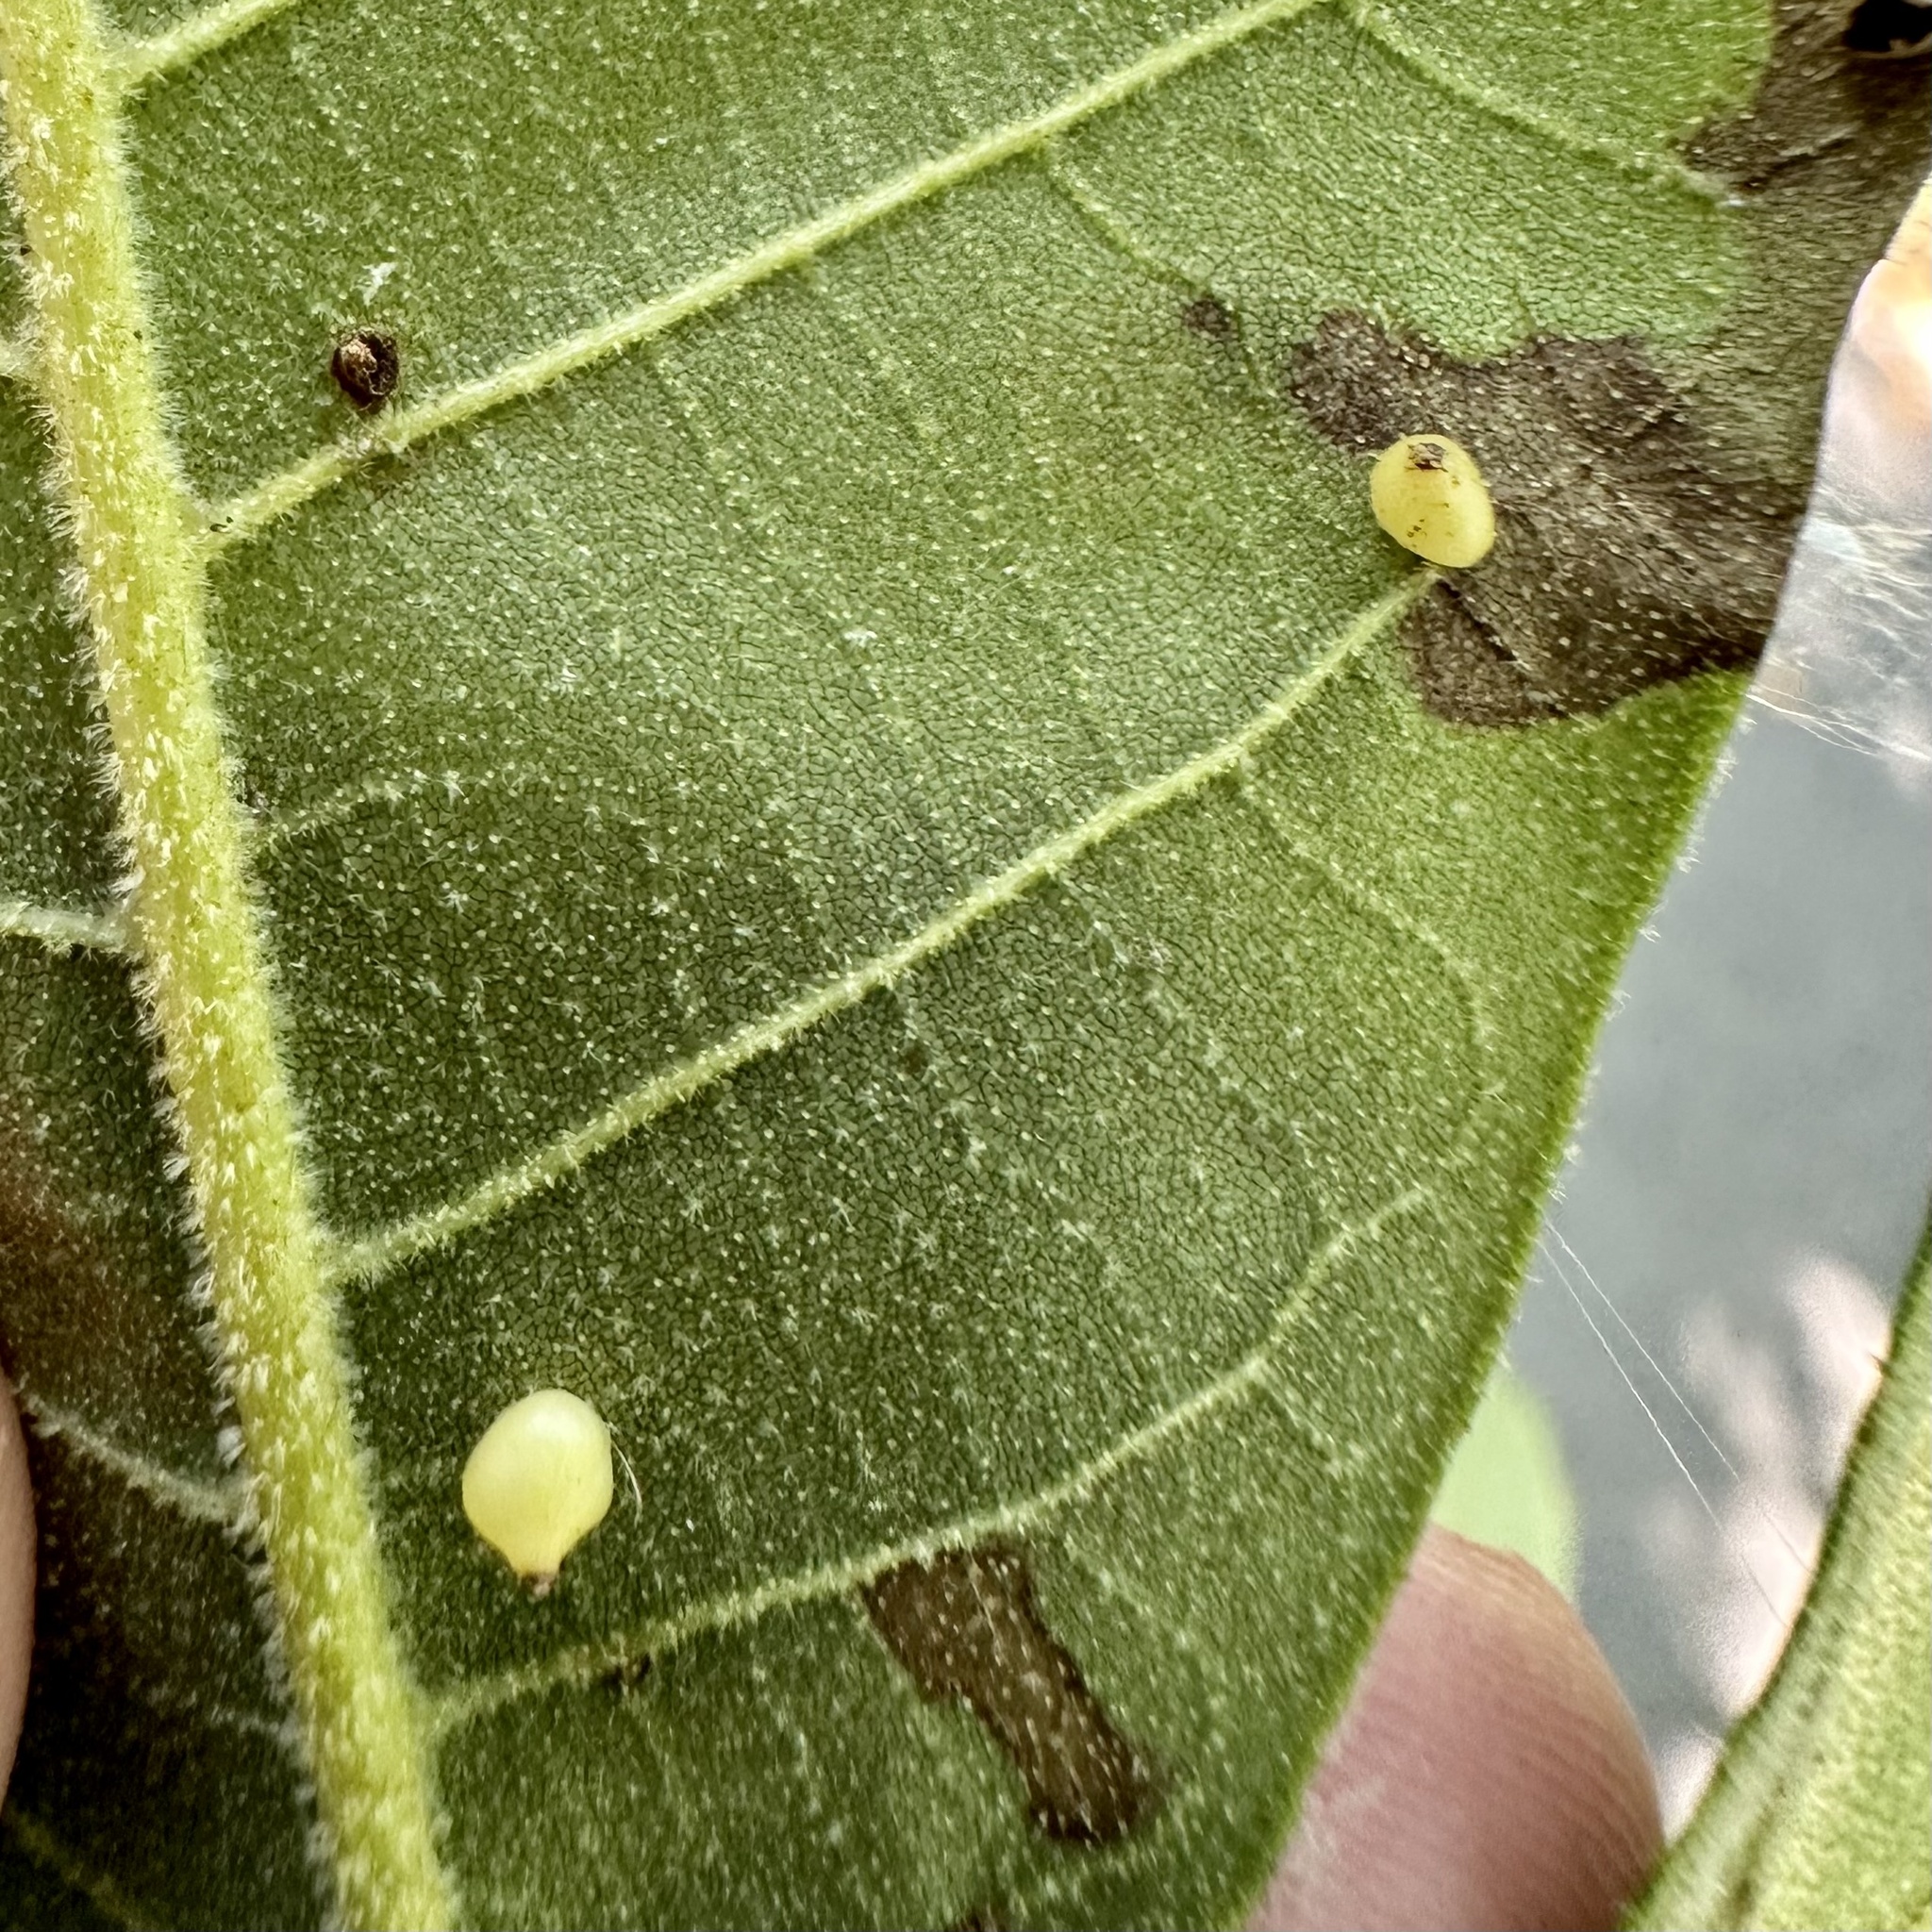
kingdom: Animalia
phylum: Arthropoda
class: Insecta
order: Diptera
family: Cecidomyiidae
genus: Caryomyia
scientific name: Caryomyia shmoo
